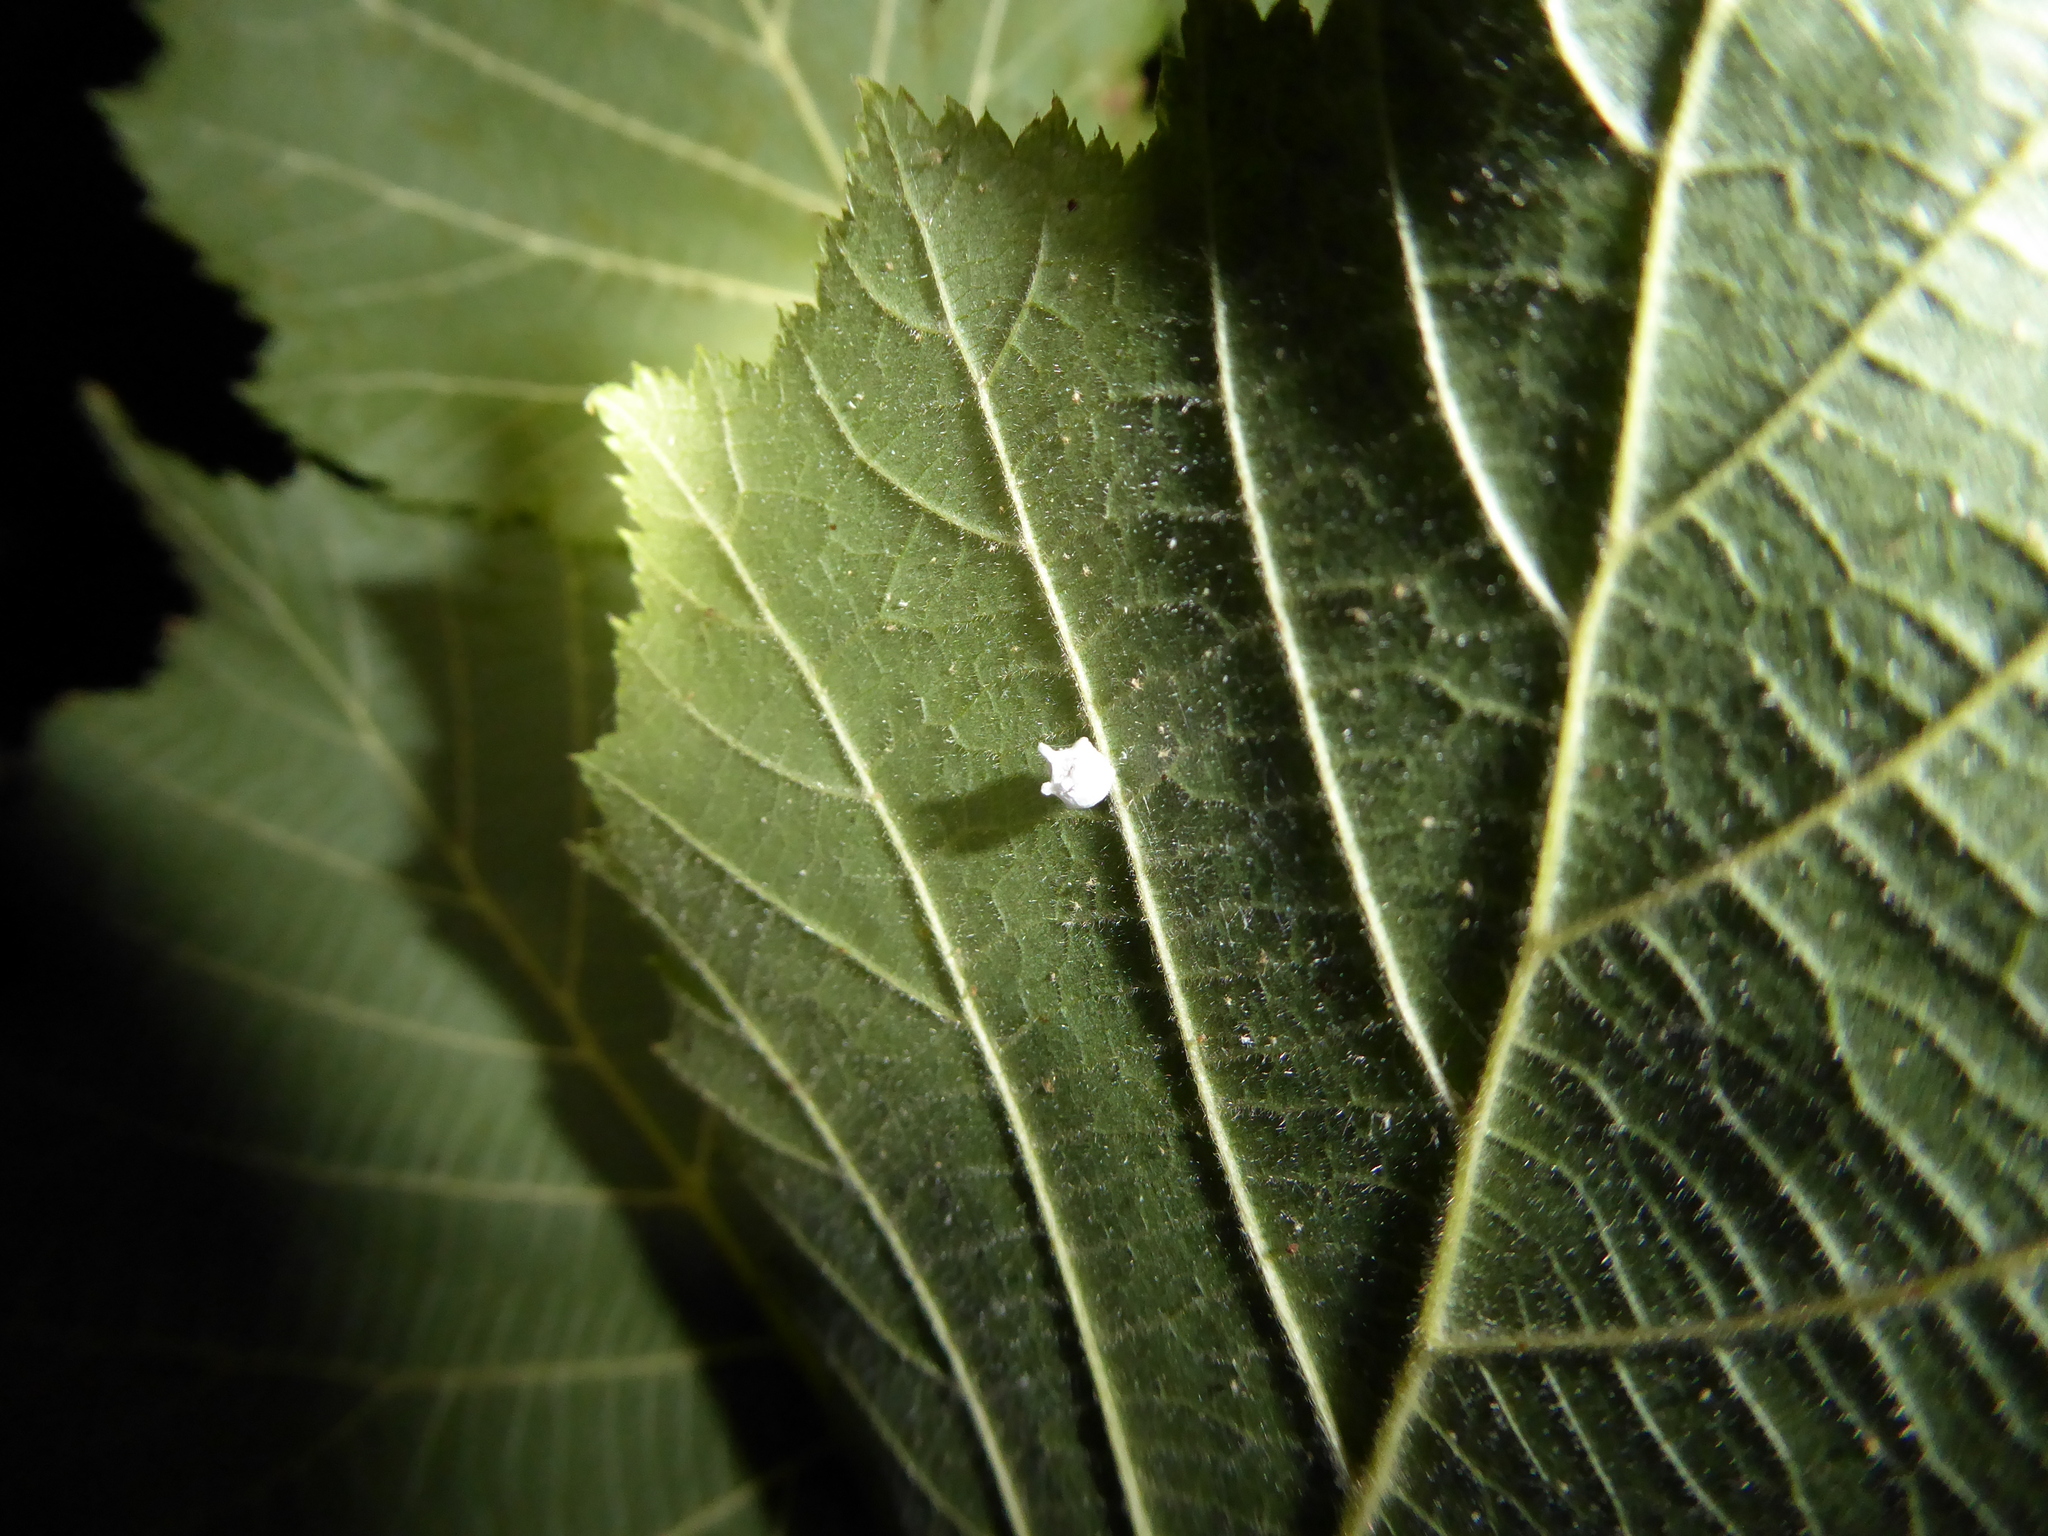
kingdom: Animalia
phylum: Arthropoda
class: Arachnida
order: Araneae
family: Theridiidae
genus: Paidiscura
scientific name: Paidiscura pallens
